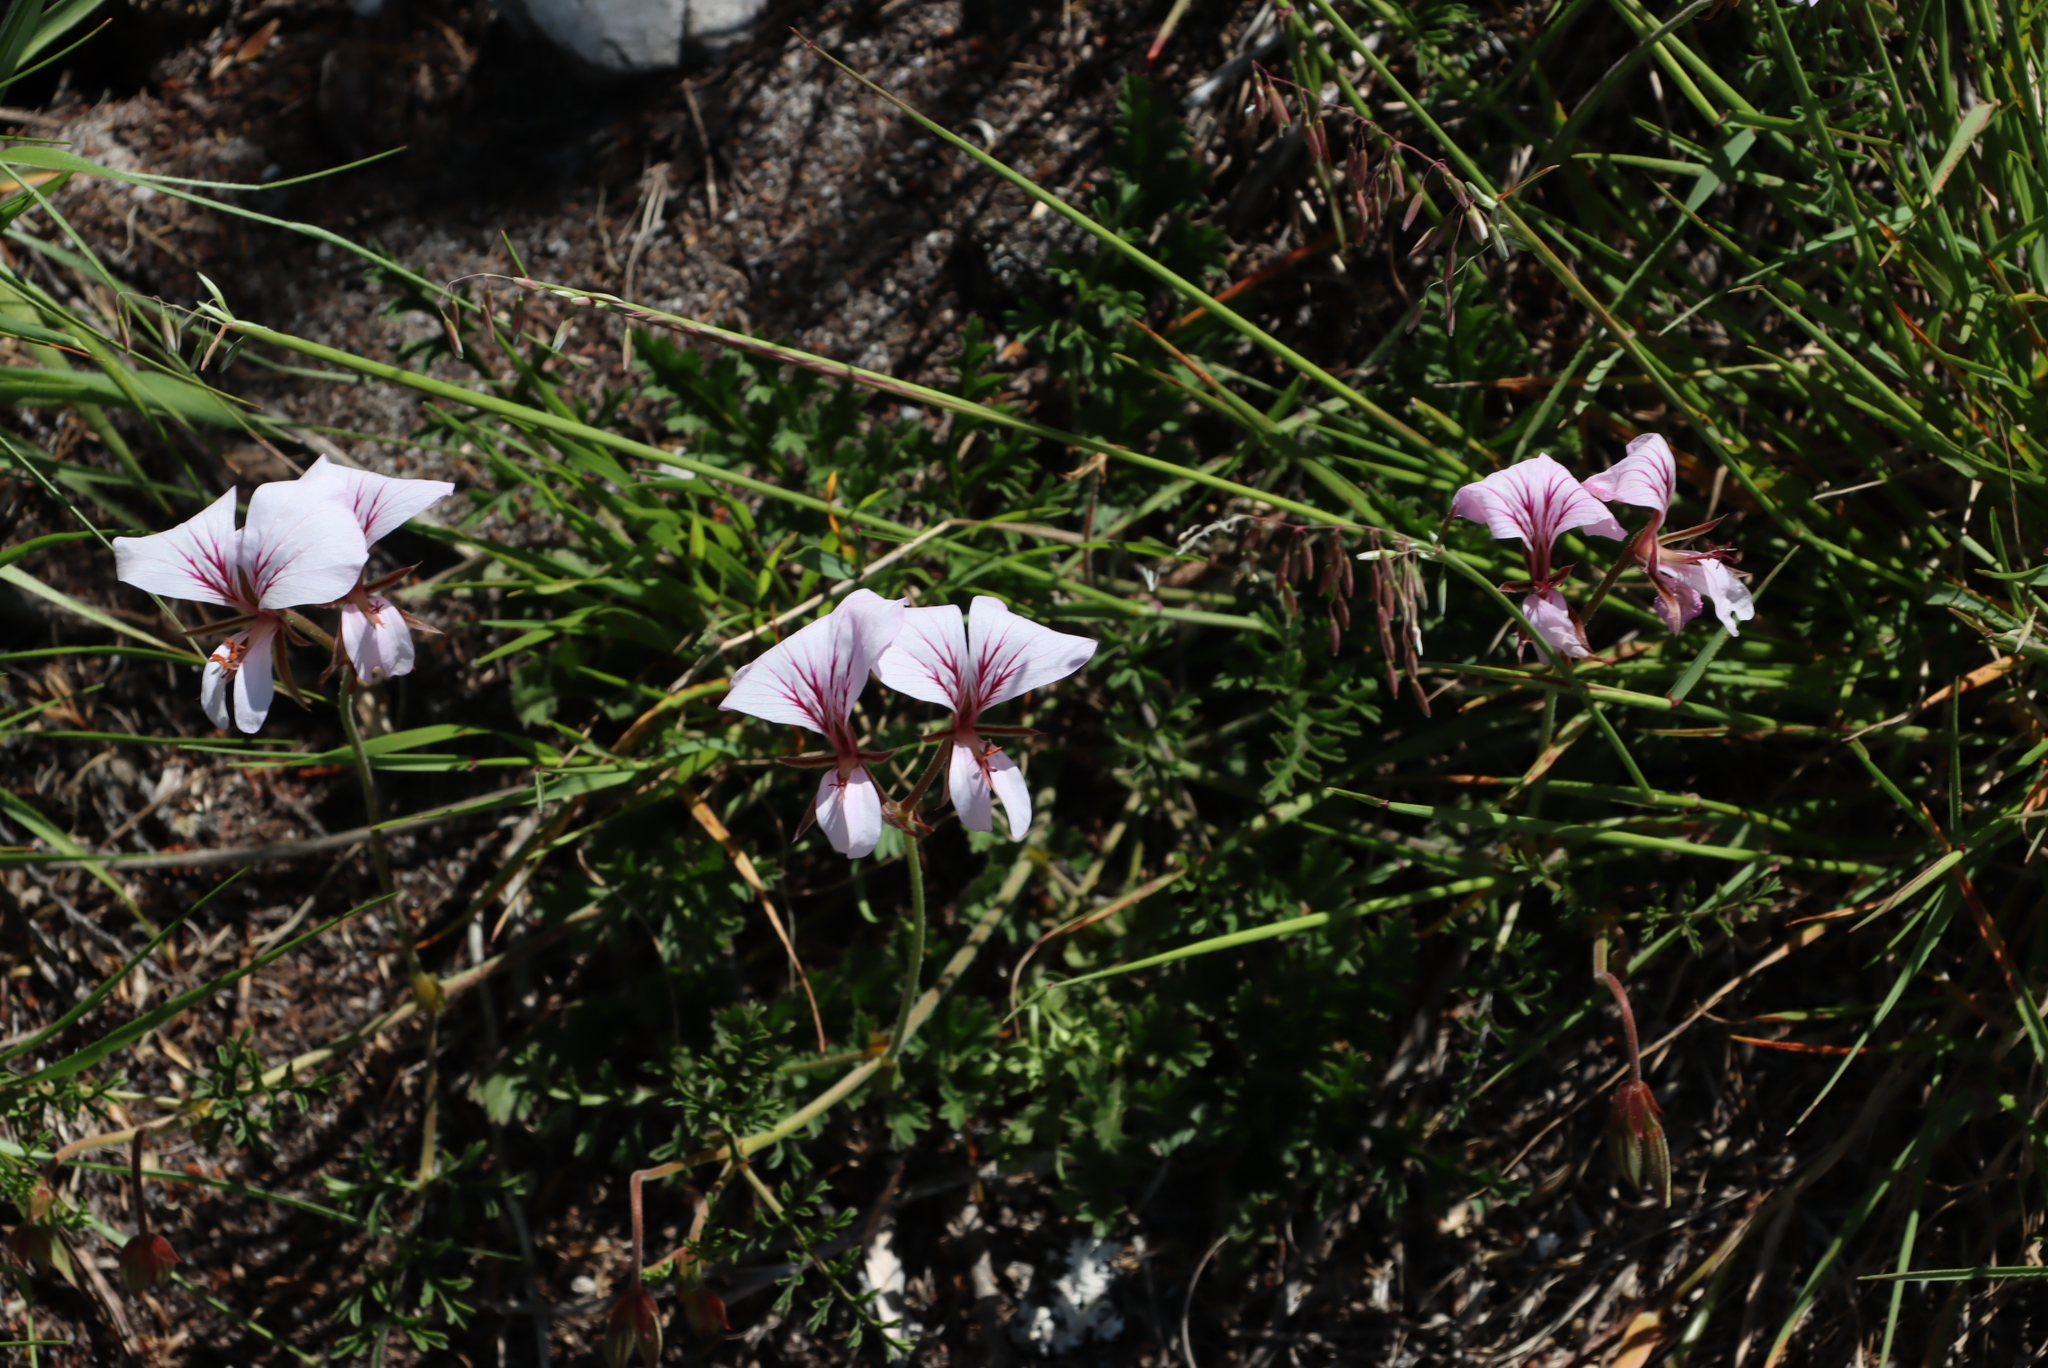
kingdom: Plantae
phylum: Tracheophyta
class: Magnoliopsida
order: Geraniales
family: Geraniaceae
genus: Pelargonium
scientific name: Pelargonium longicaule
